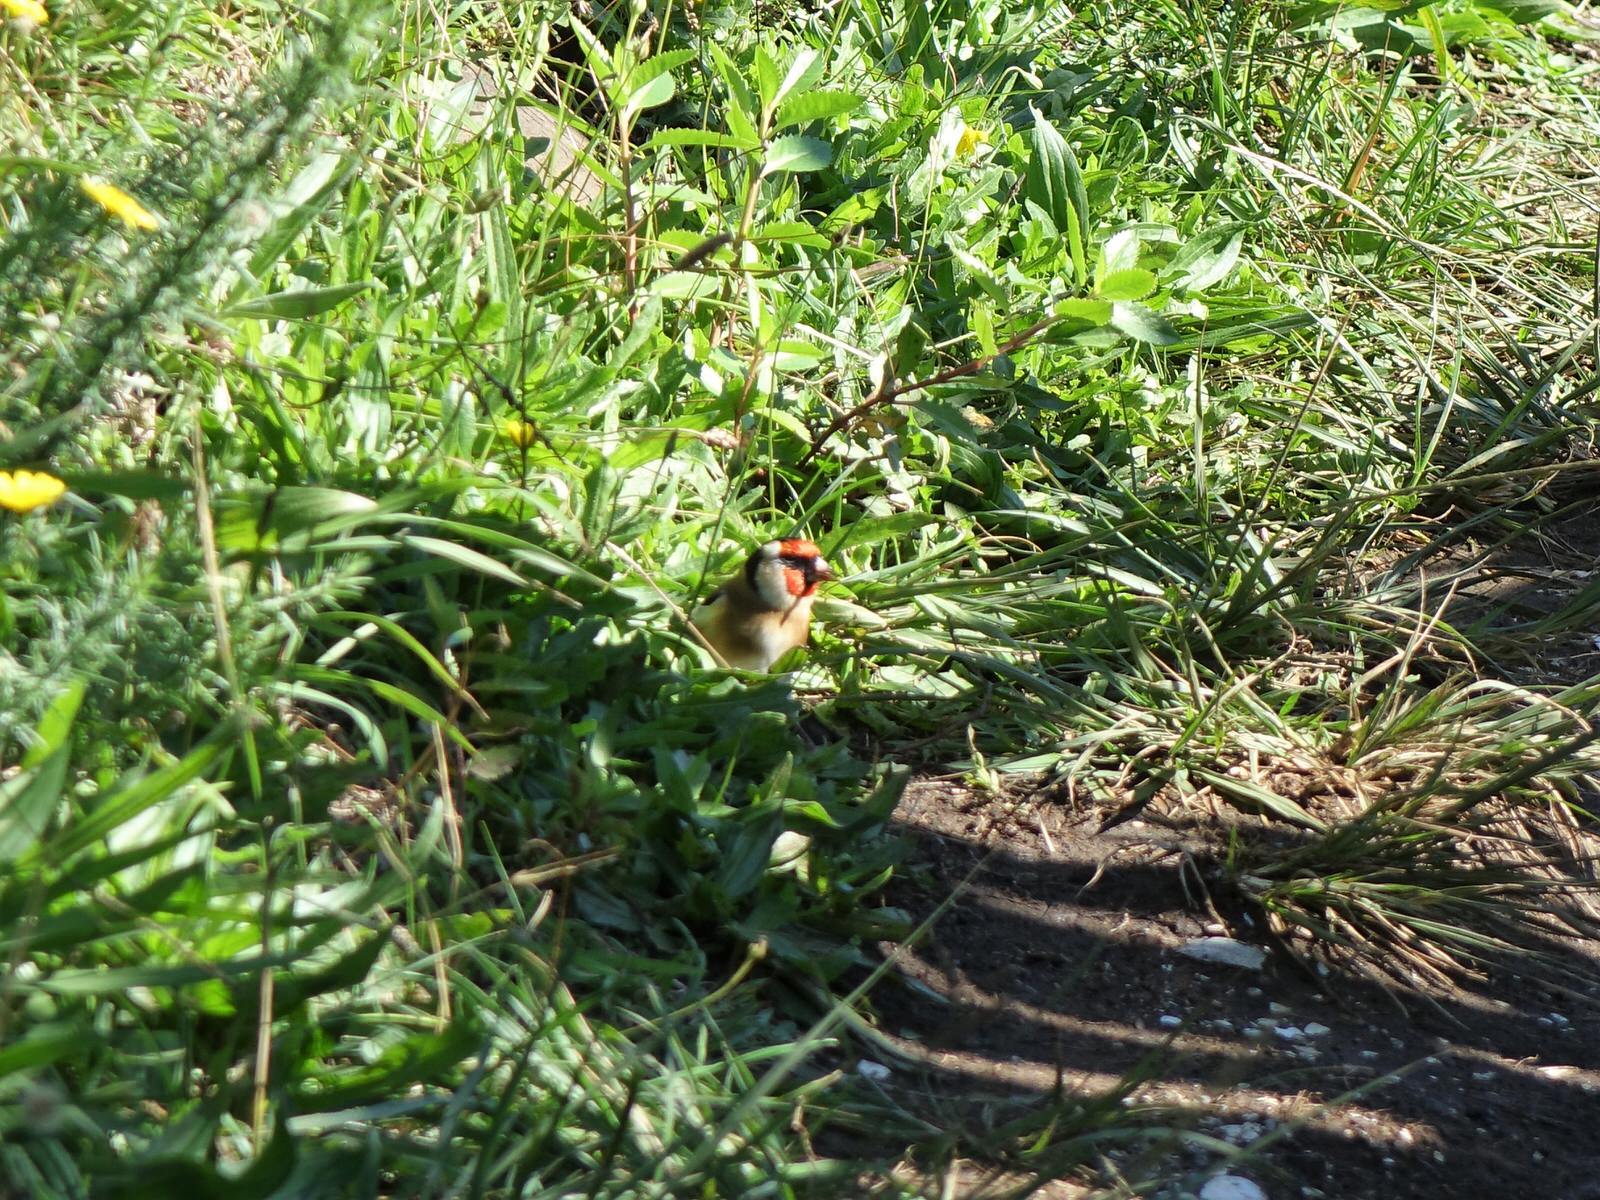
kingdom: Animalia
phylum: Chordata
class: Aves
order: Passeriformes
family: Fringillidae
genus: Carduelis
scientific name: Carduelis carduelis
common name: European goldfinch
